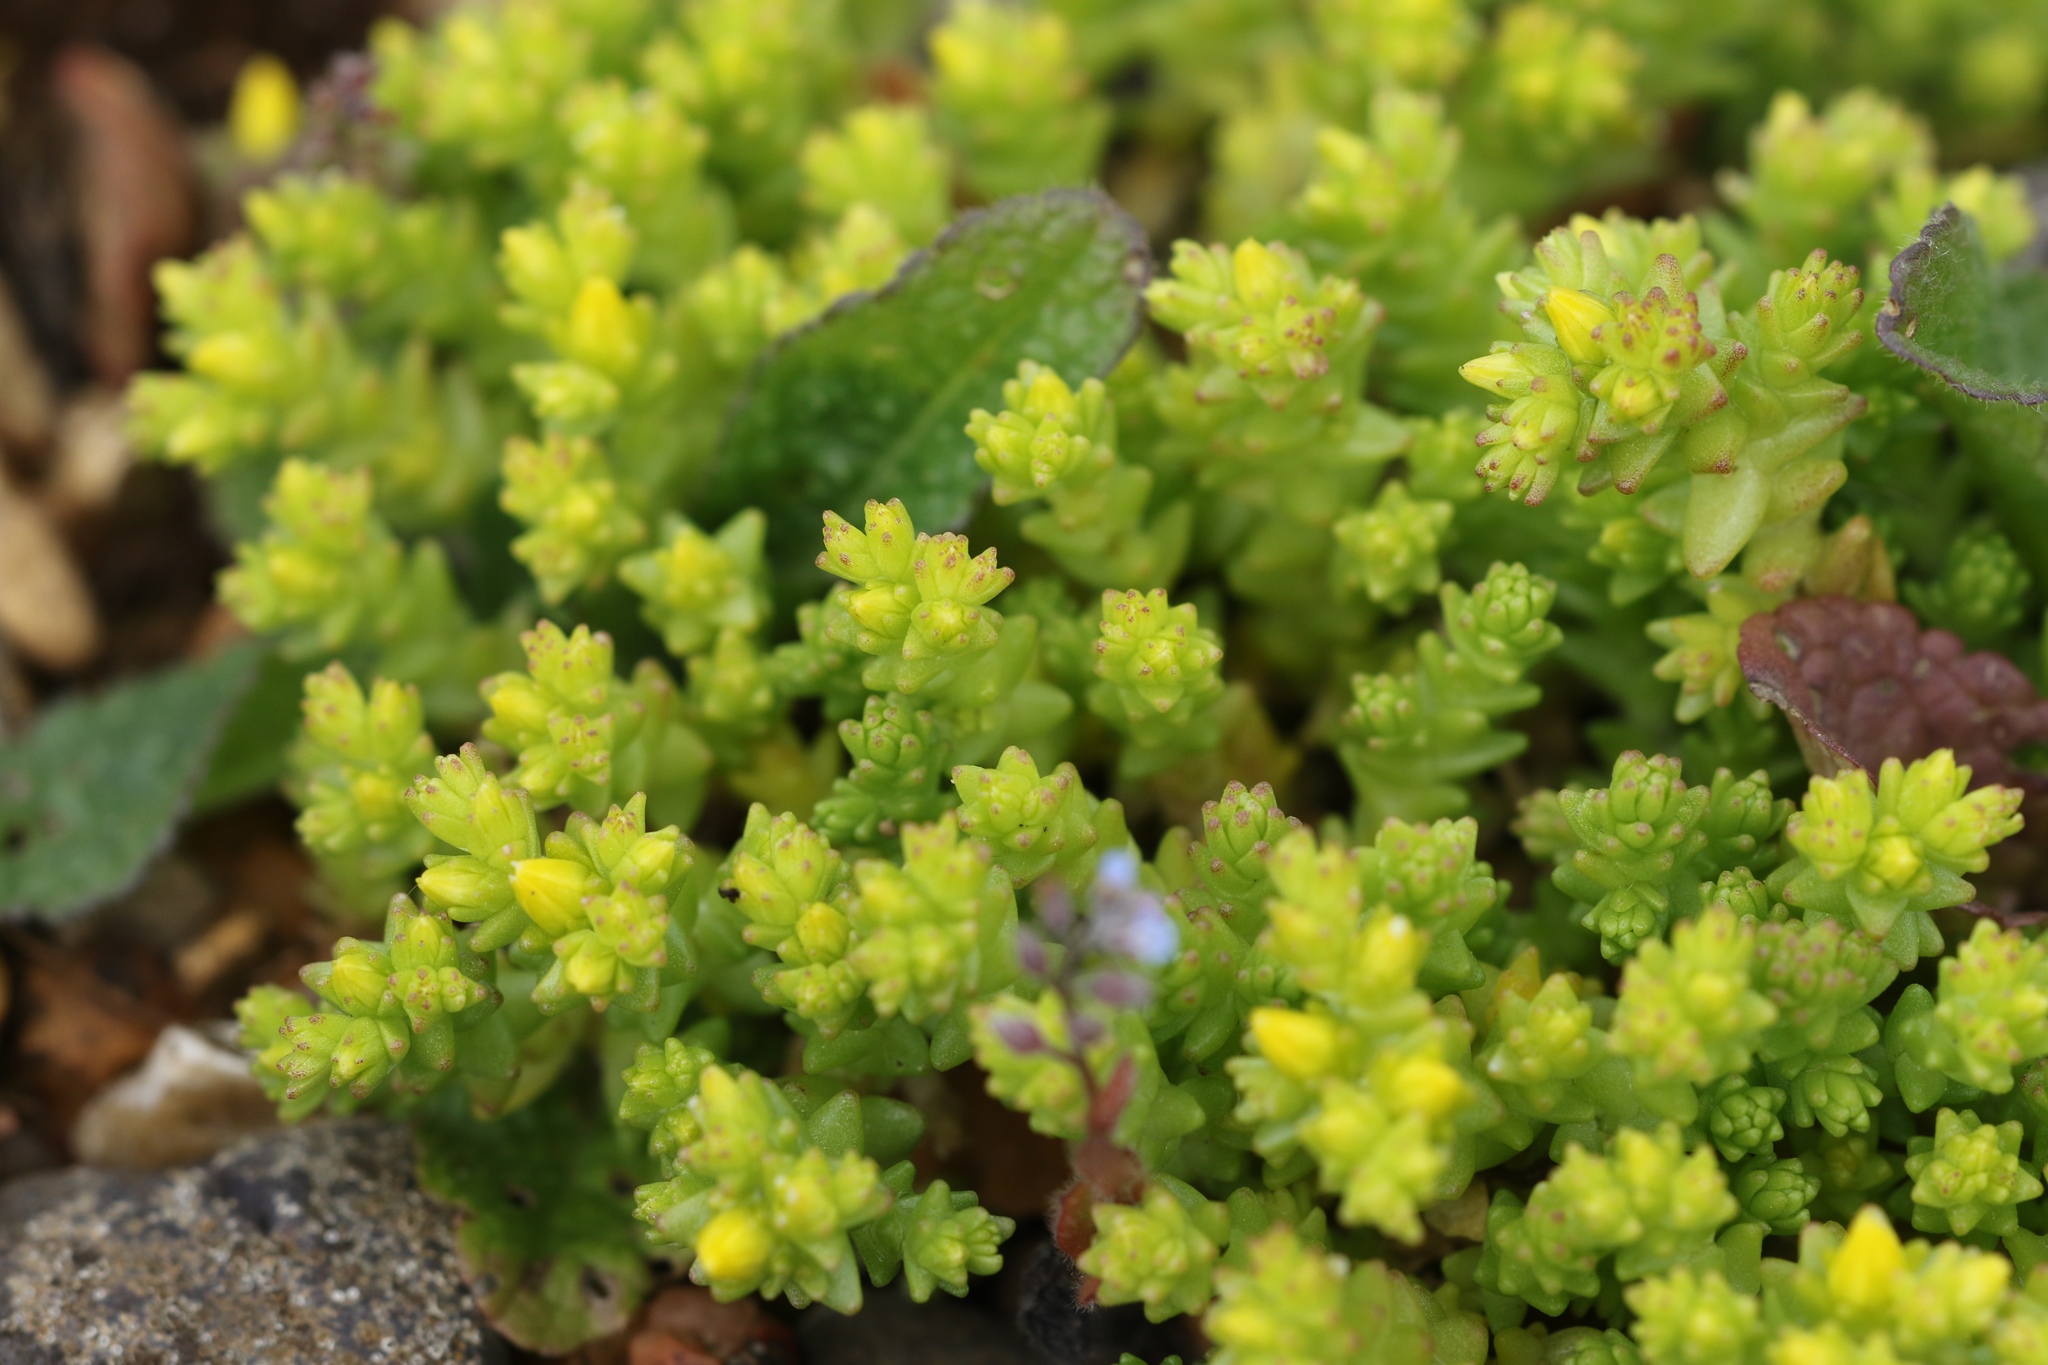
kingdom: Plantae
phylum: Tracheophyta
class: Magnoliopsida
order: Saxifragales
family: Crassulaceae
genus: Sedum
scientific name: Sedum acre
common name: Biting stonecrop
